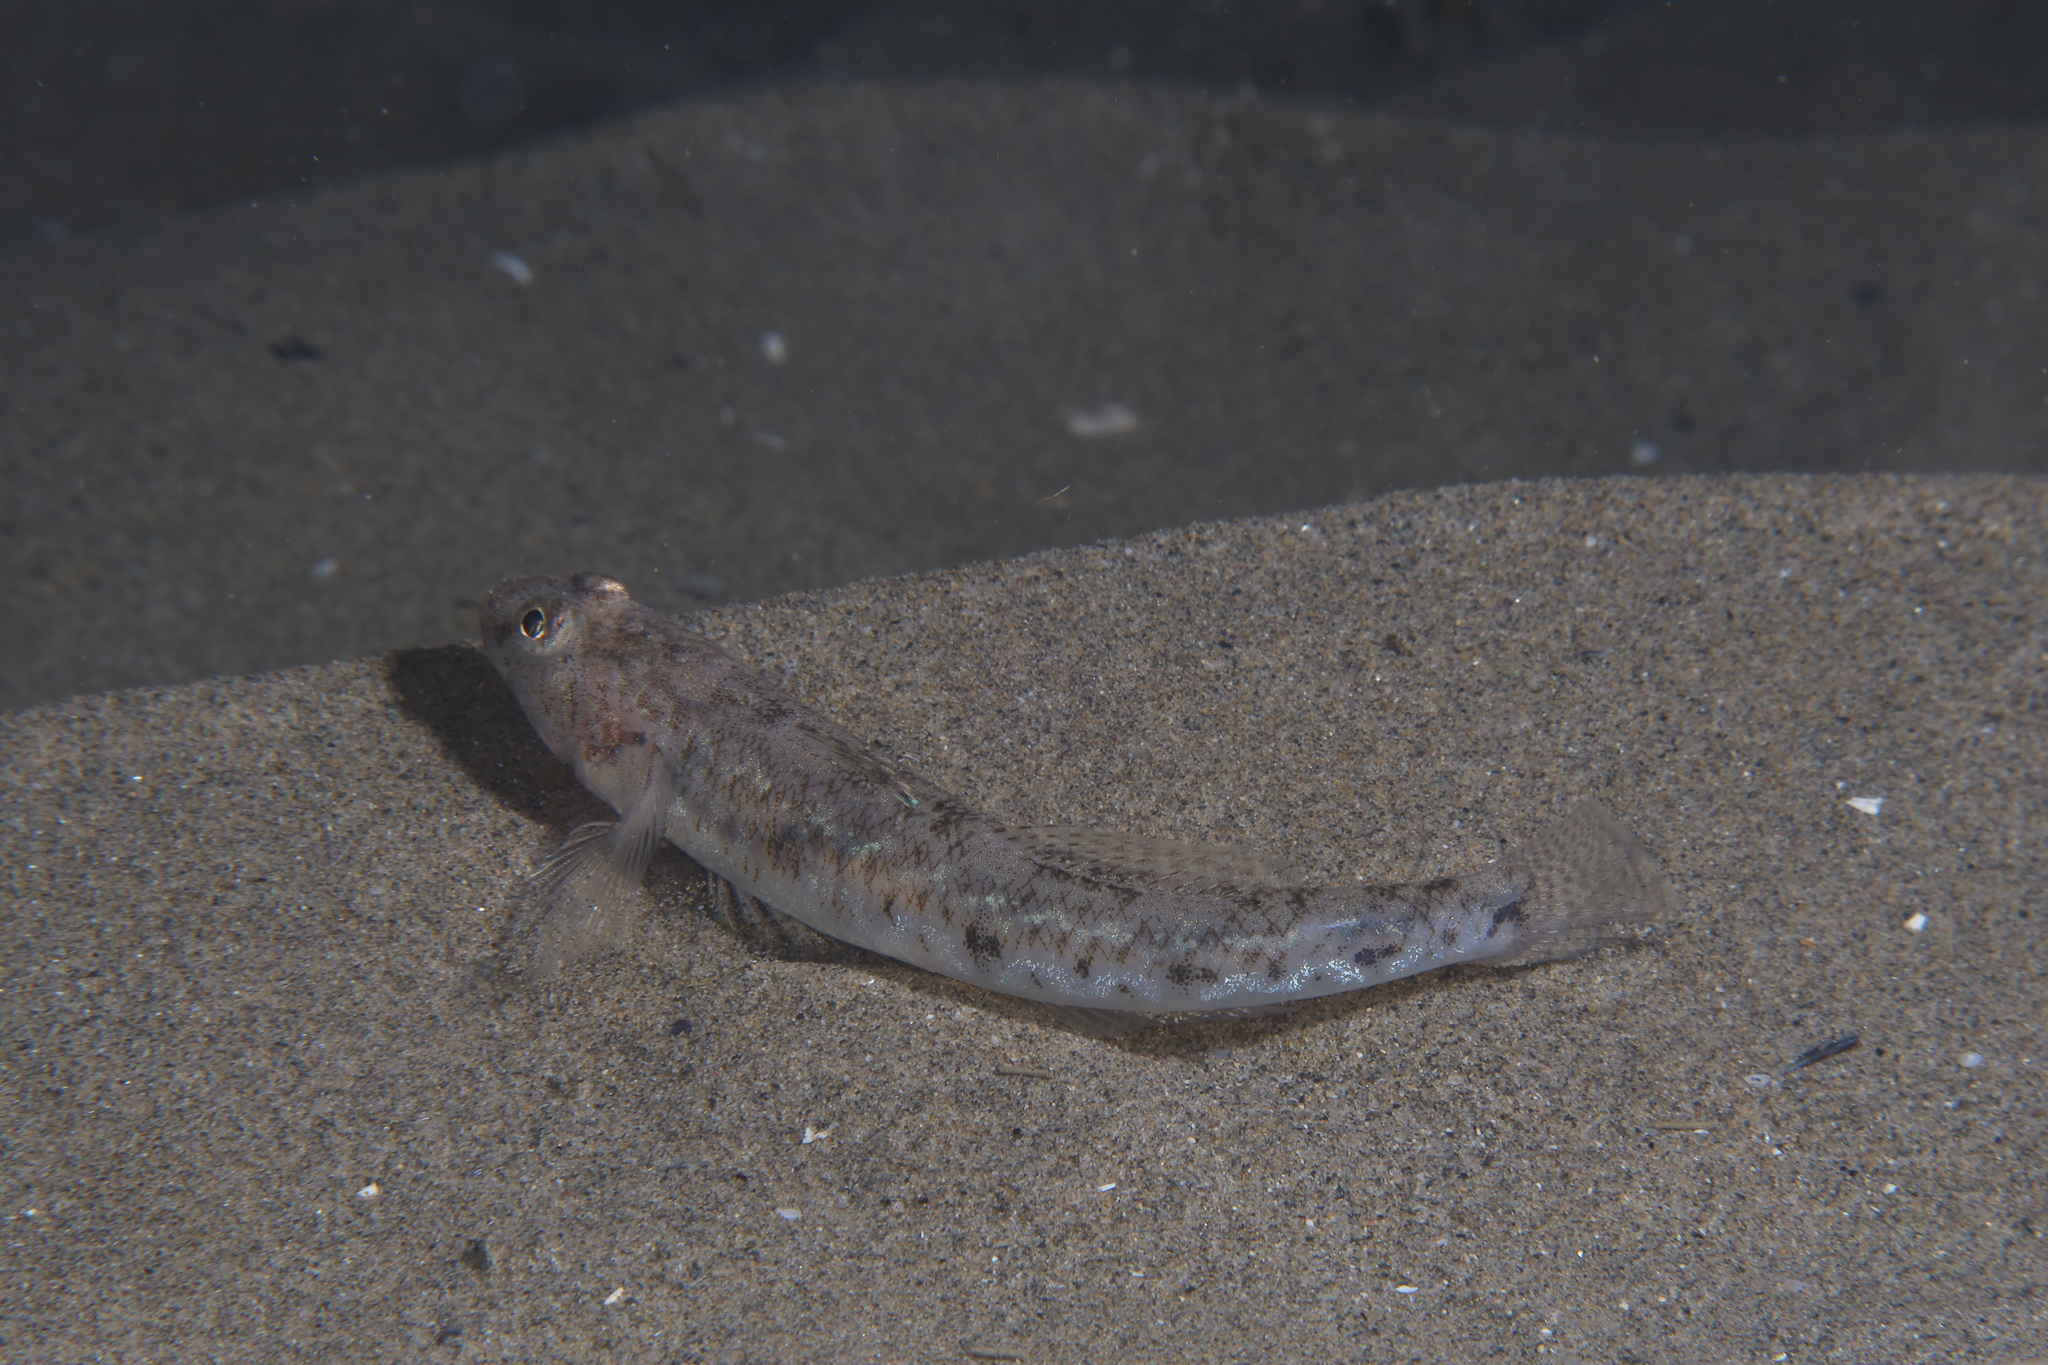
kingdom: Animalia
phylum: Chordata
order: Perciformes
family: Gobiidae
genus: Pomatoschistus
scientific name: Pomatoschistus minutus
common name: Sand goby
